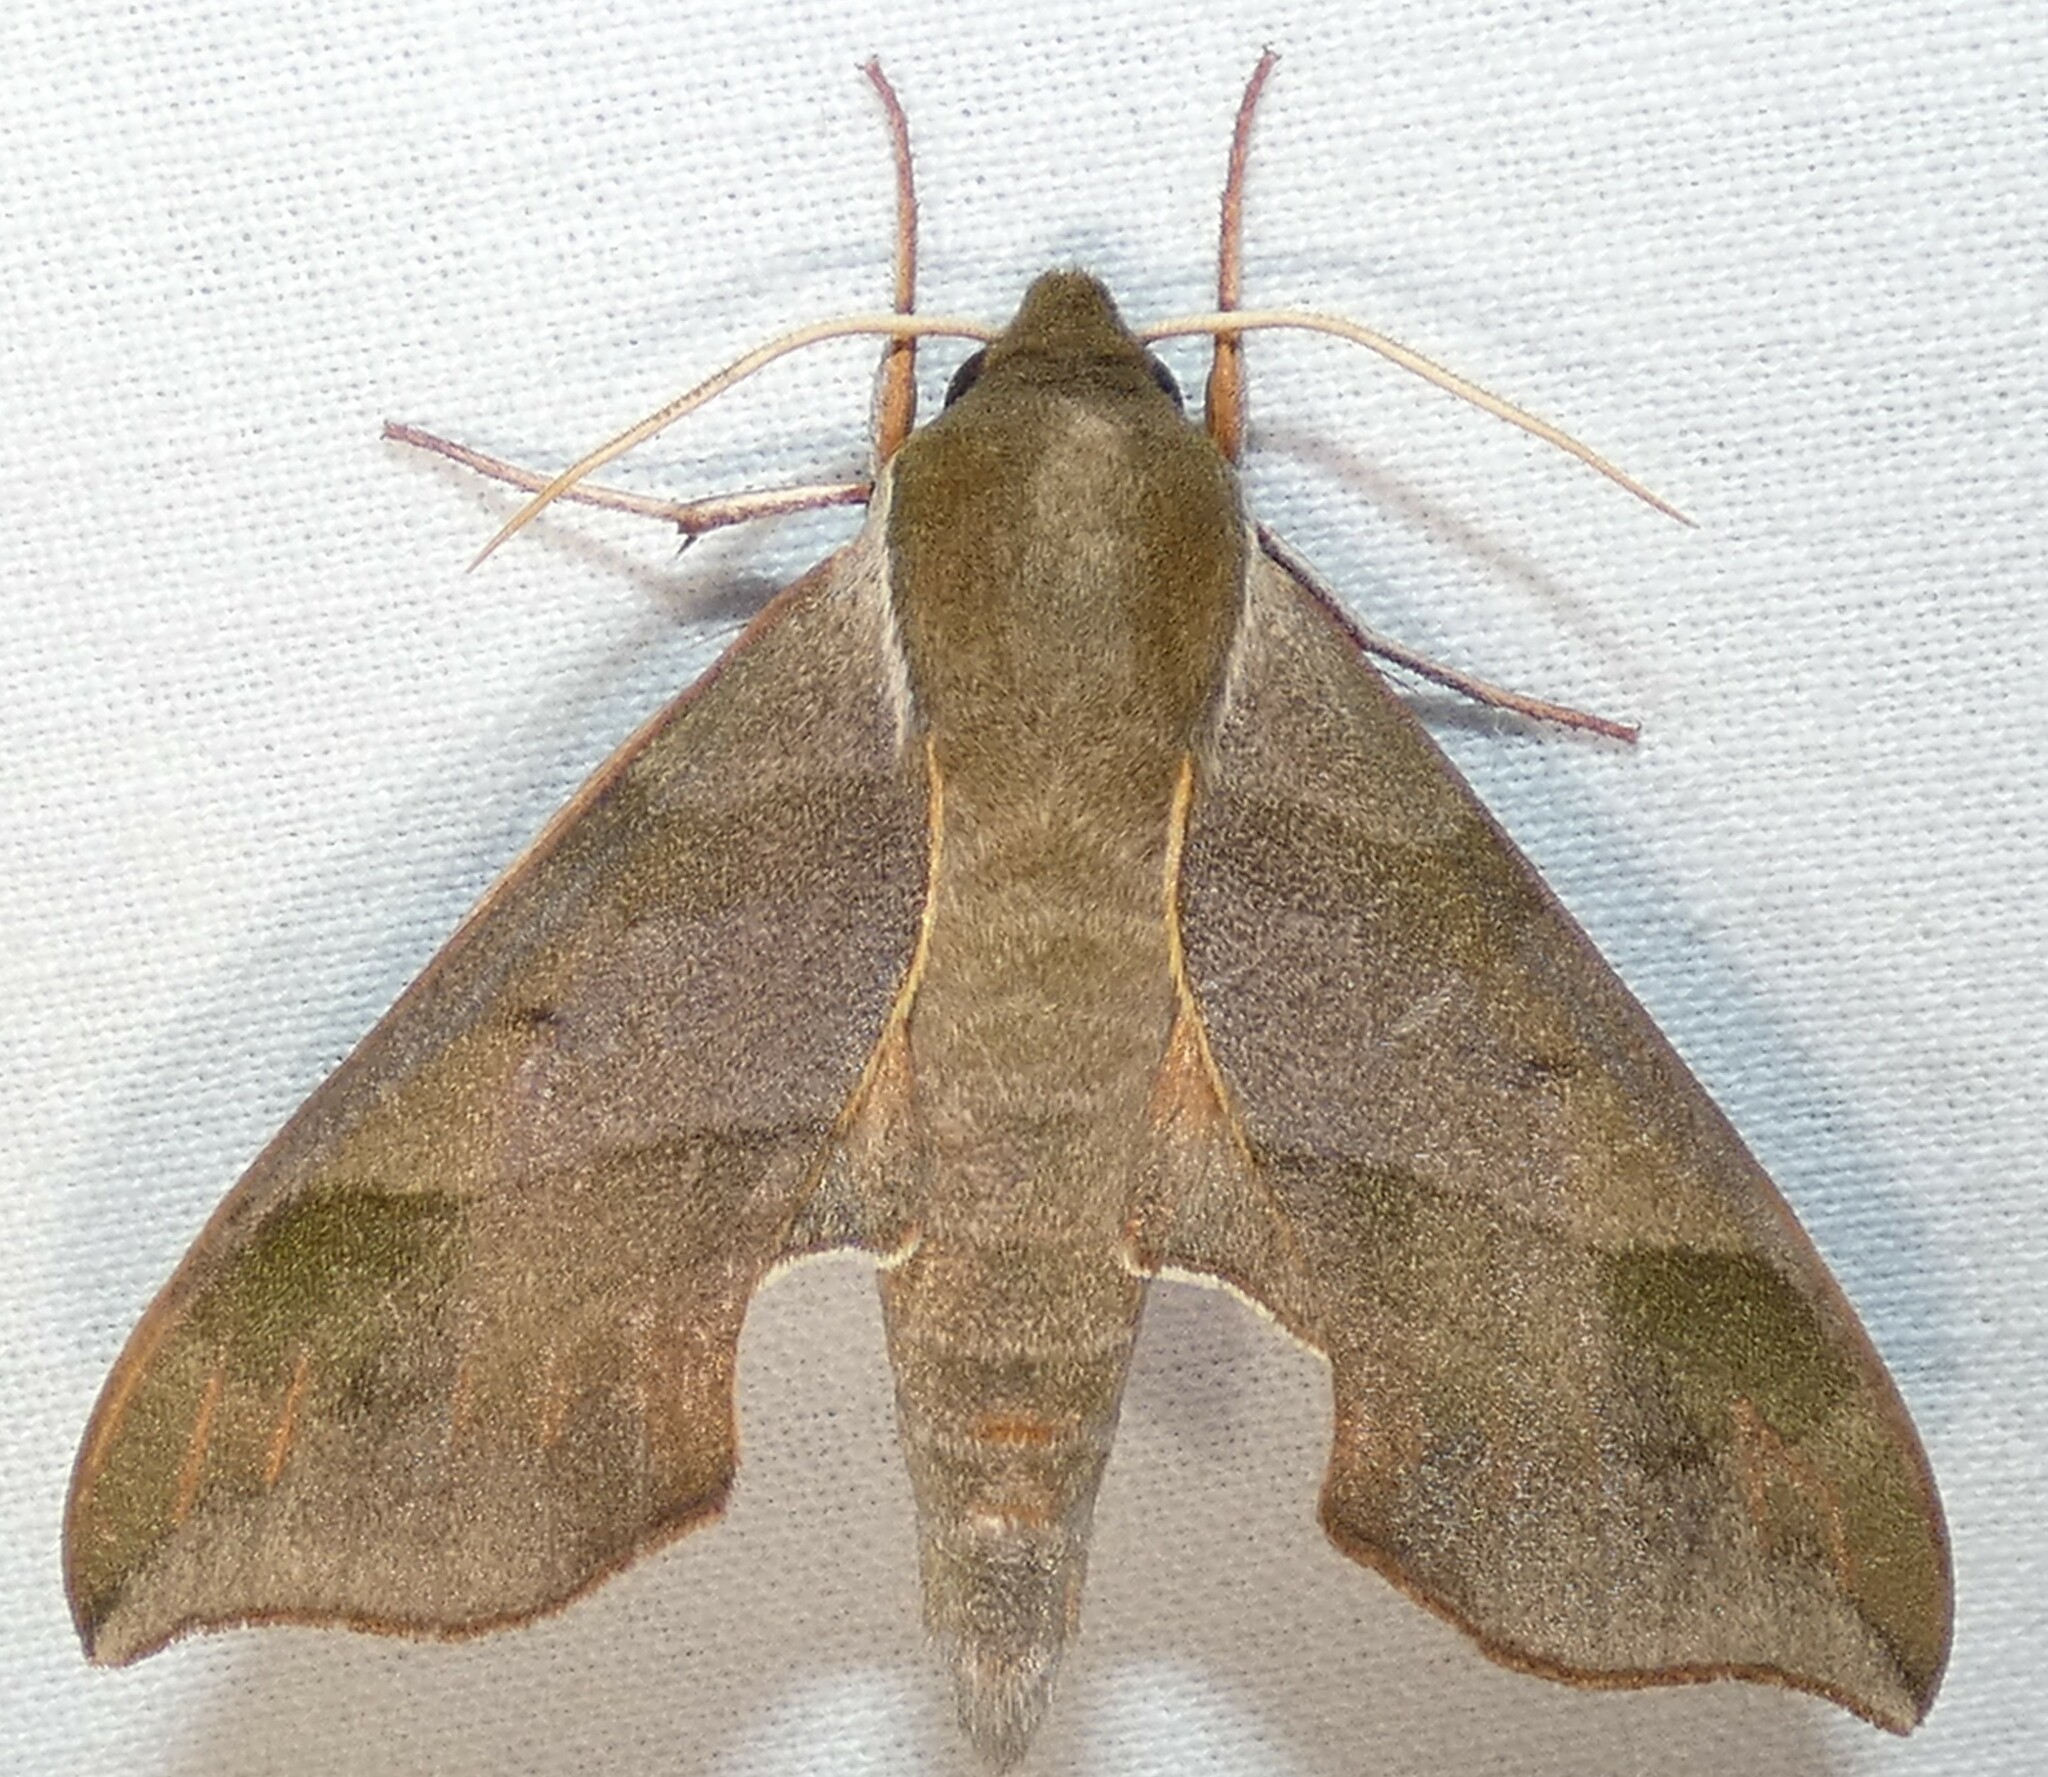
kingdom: Animalia
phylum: Arthropoda
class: Insecta
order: Lepidoptera
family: Sphingidae
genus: Darapsa
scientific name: Darapsa myron
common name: Hog sphinx
